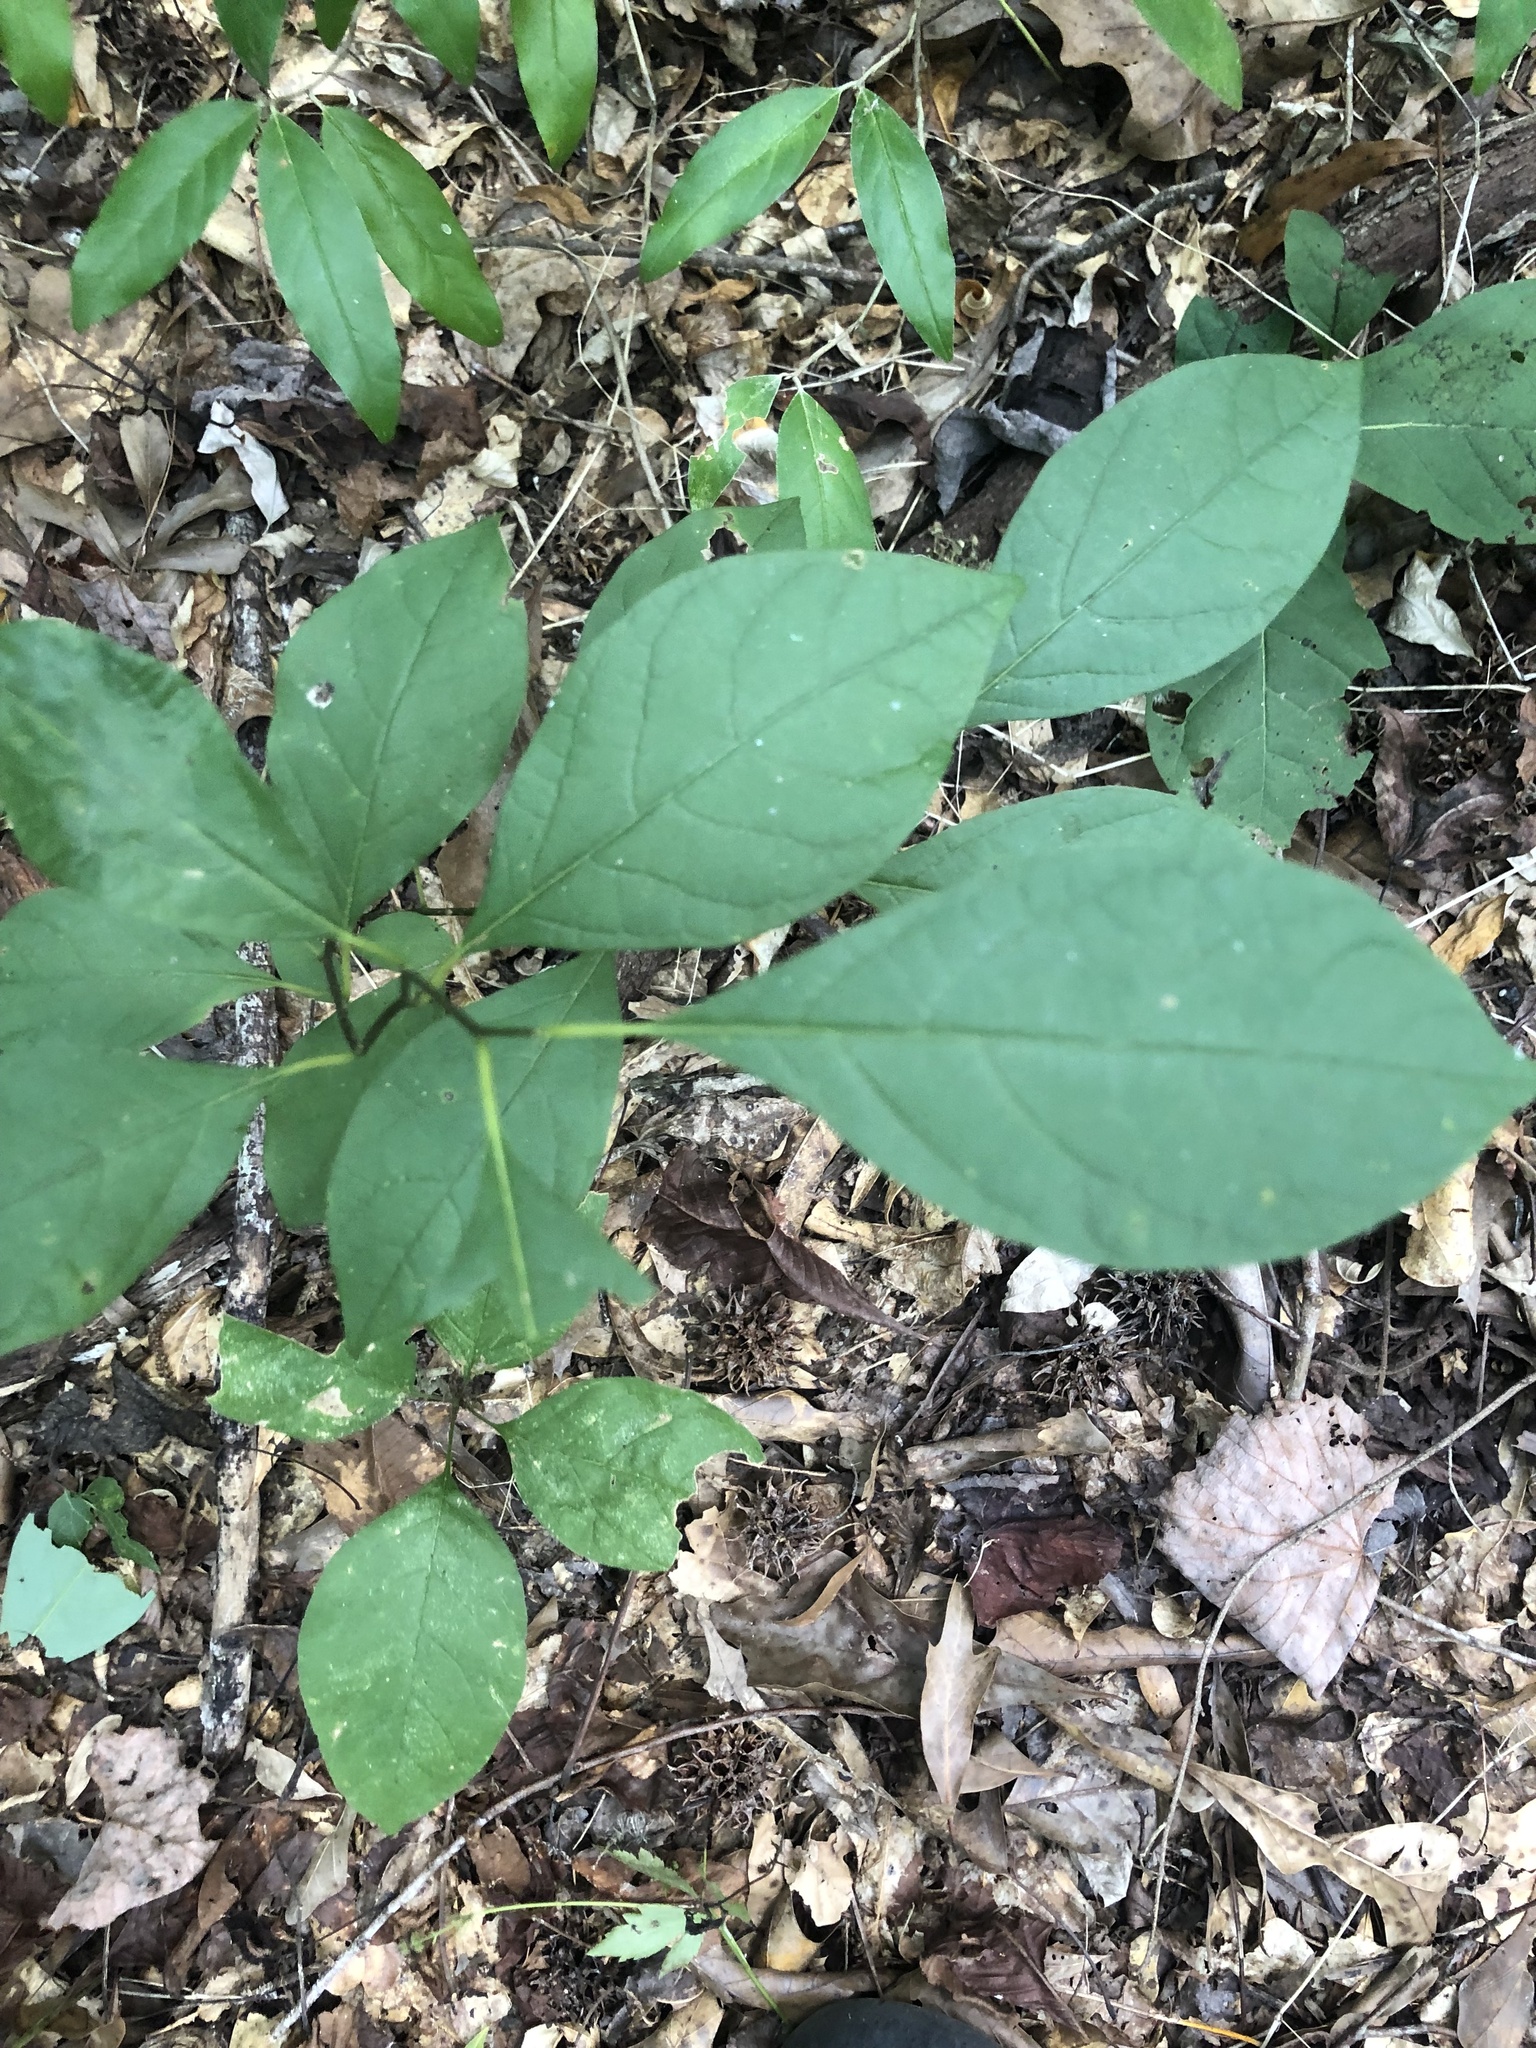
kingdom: Plantae
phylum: Tracheophyta
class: Magnoliopsida
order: Laurales
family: Lauraceae
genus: Lindera
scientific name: Lindera benzoin
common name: Spicebush
